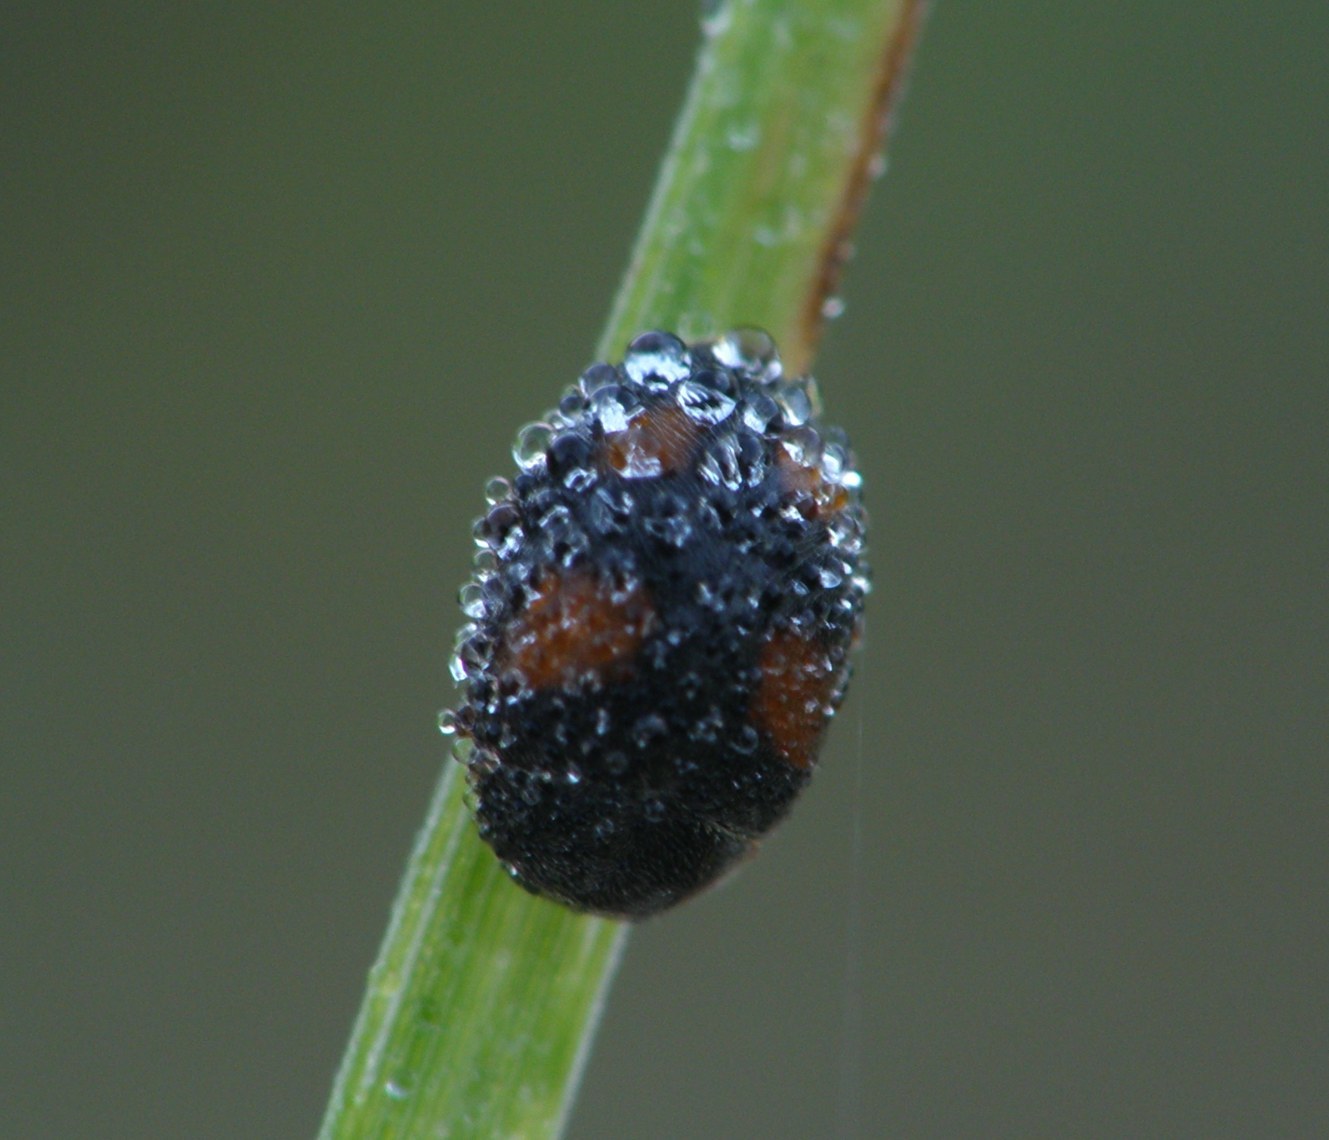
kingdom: Animalia
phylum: Arthropoda
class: Insecta
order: Coleoptera
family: Coccinellidae
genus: Scymnus
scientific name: Scymnus frontalis
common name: Ladybird beetle
